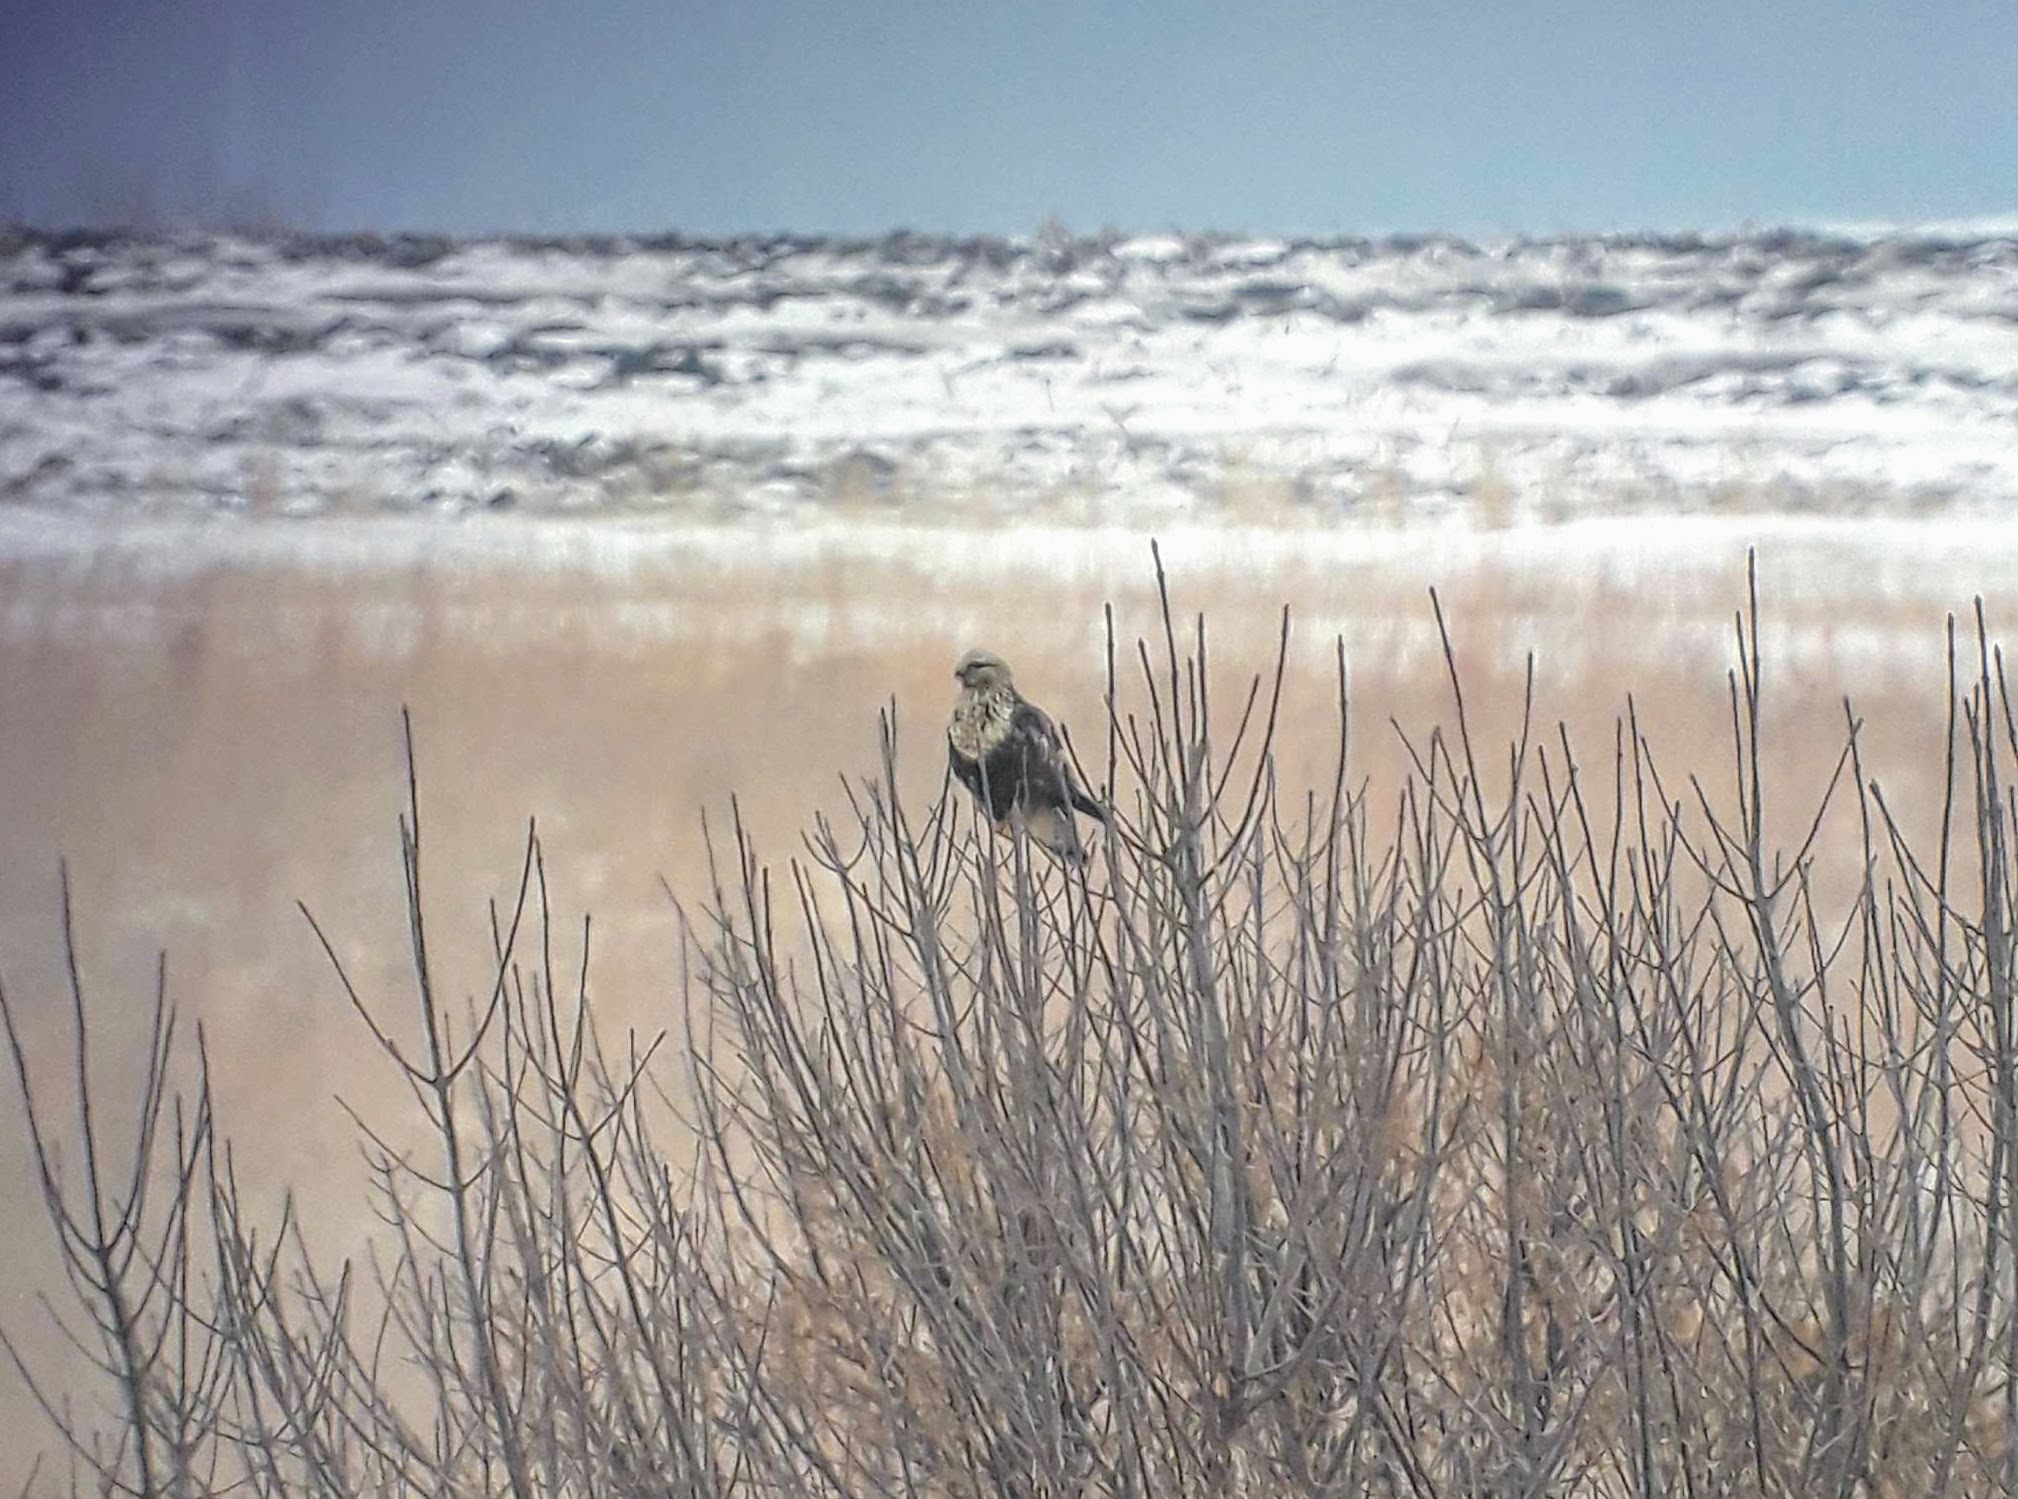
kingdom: Animalia
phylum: Chordata
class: Aves
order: Accipitriformes
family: Accipitridae
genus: Buteo
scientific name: Buteo lagopus
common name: Rough-legged buzzard
